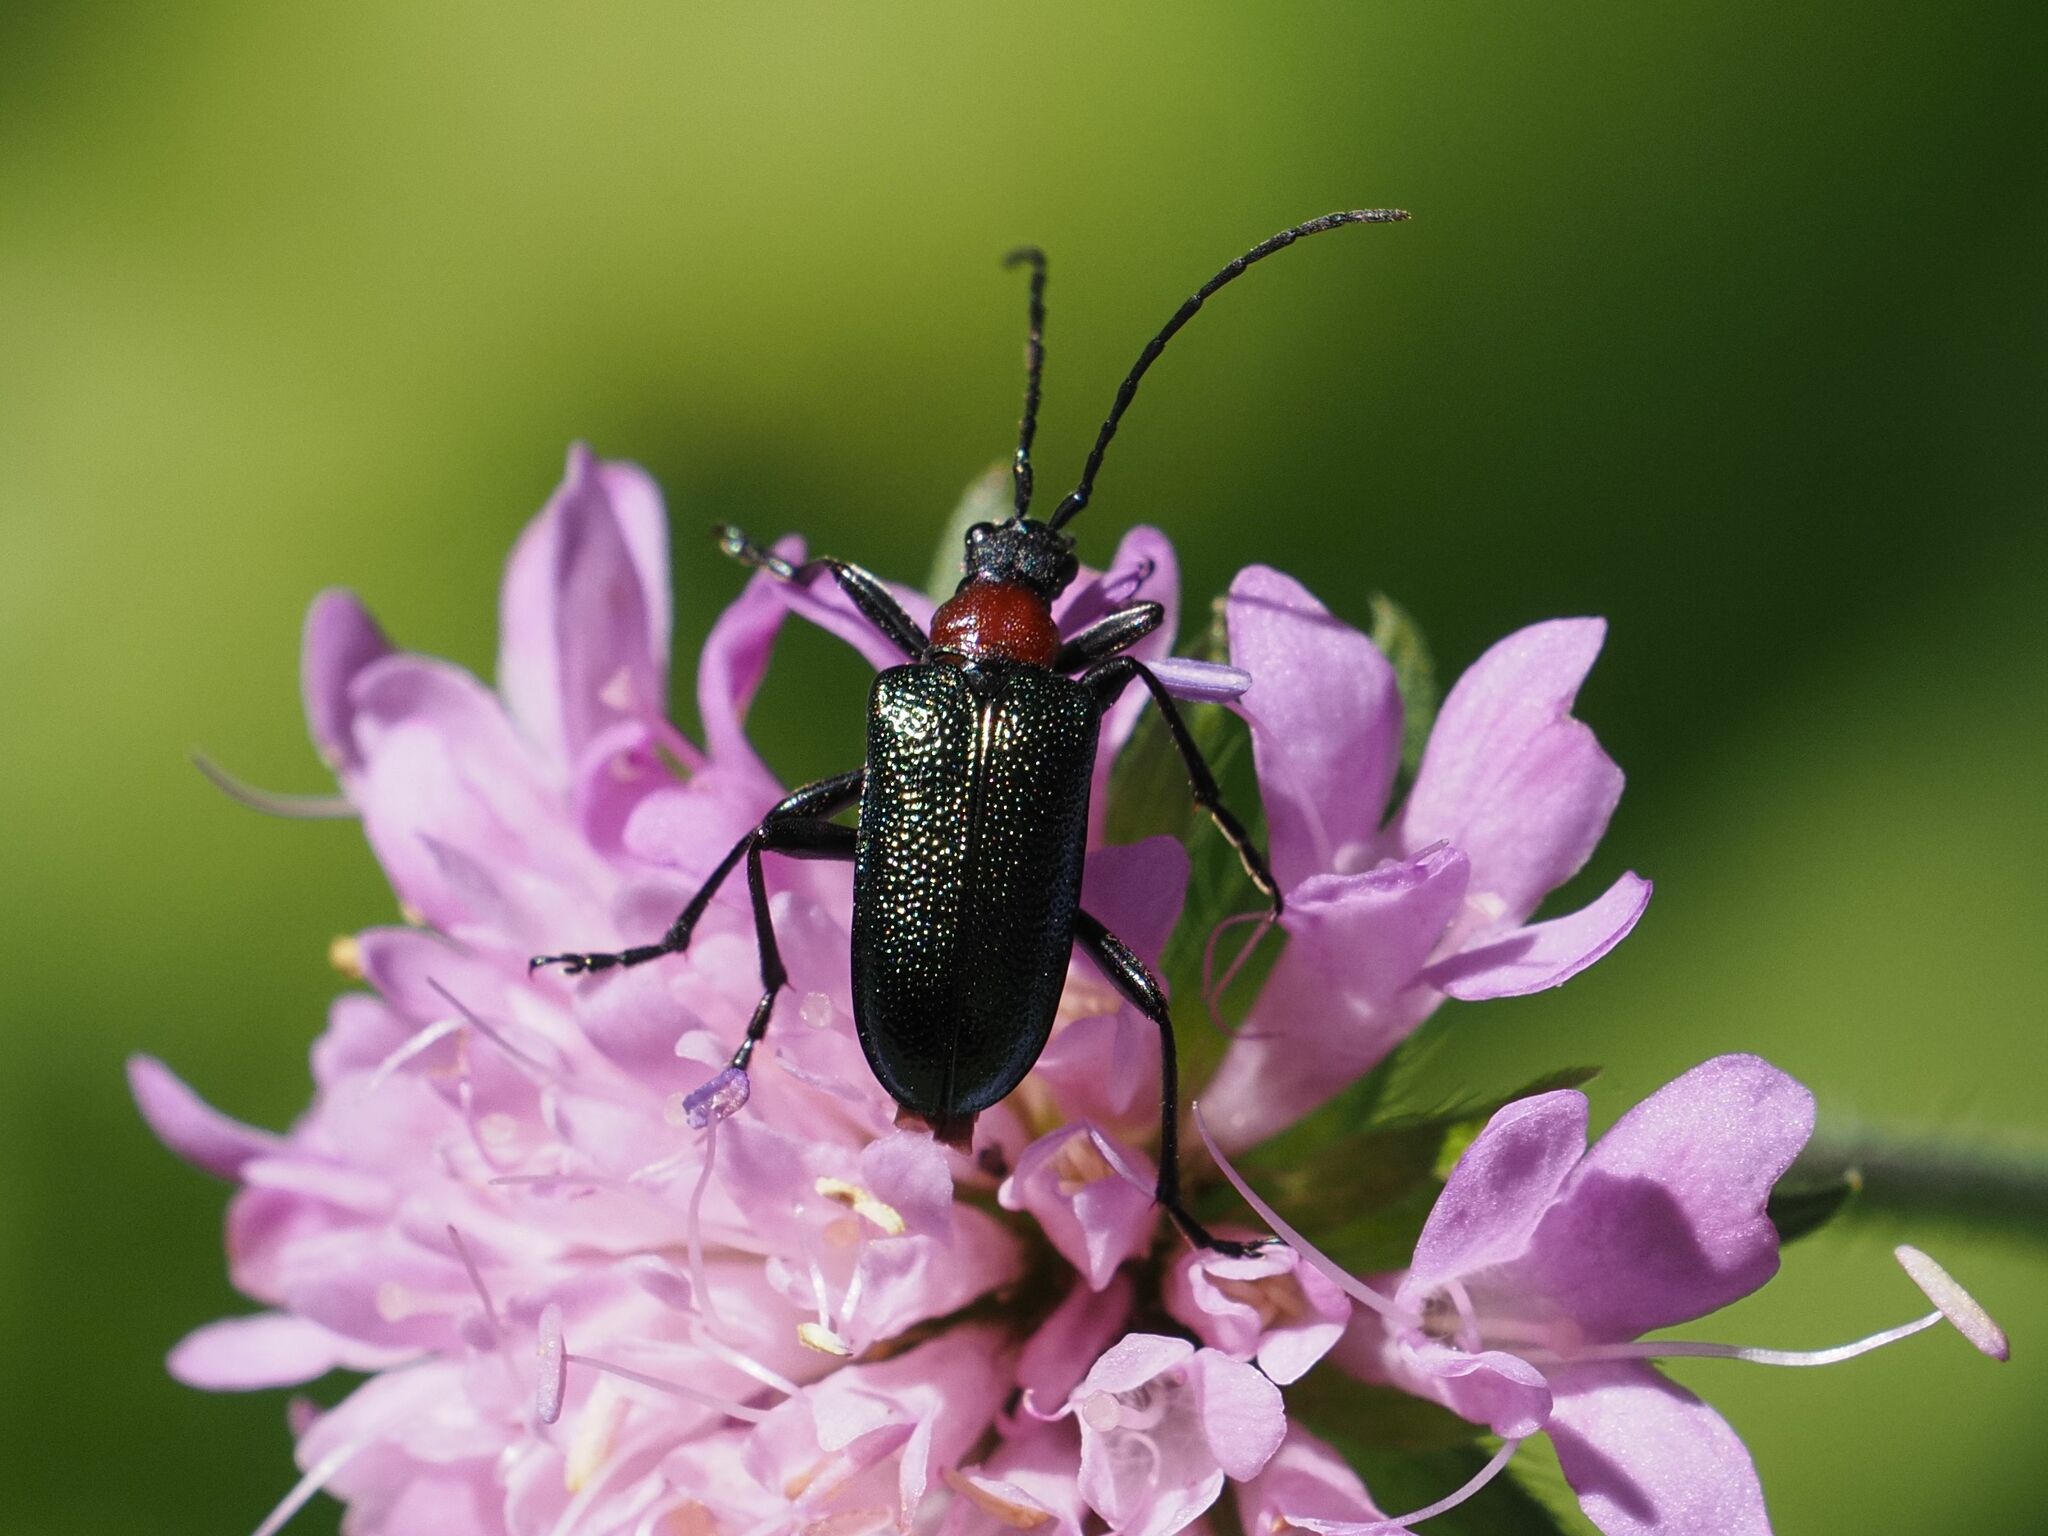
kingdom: Animalia
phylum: Arthropoda
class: Insecta
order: Coleoptera
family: Cerambycidae
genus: Gaurotes
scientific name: Gaurotes virginea
